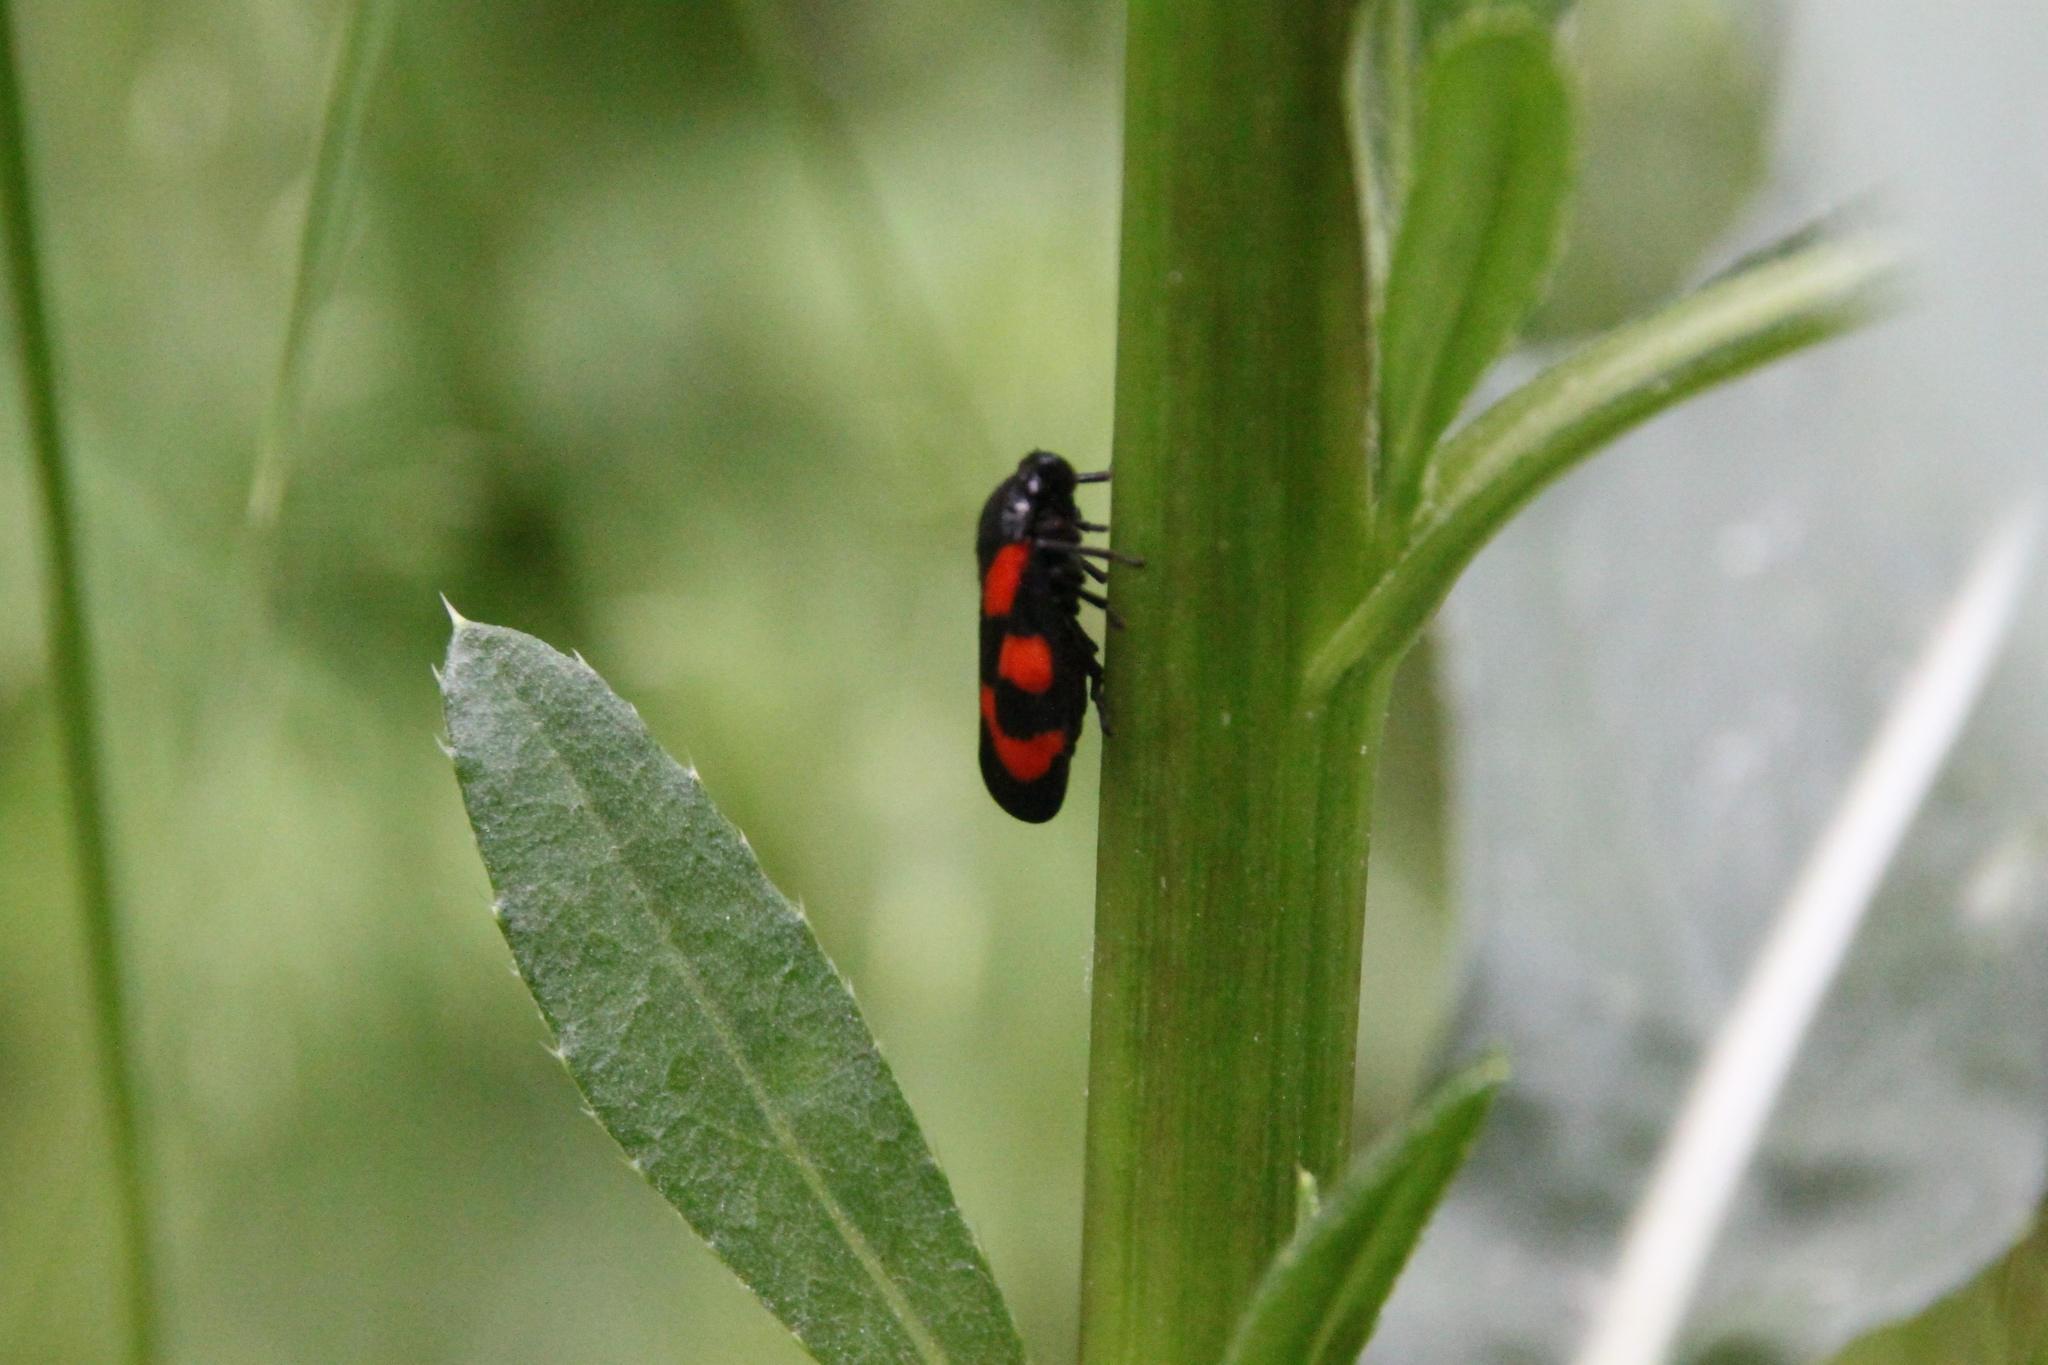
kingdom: Animalia
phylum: Arthropoda
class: Insecta
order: Hemiptera
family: Cercopidae
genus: Cercopis
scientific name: Cercopis vulnerata
